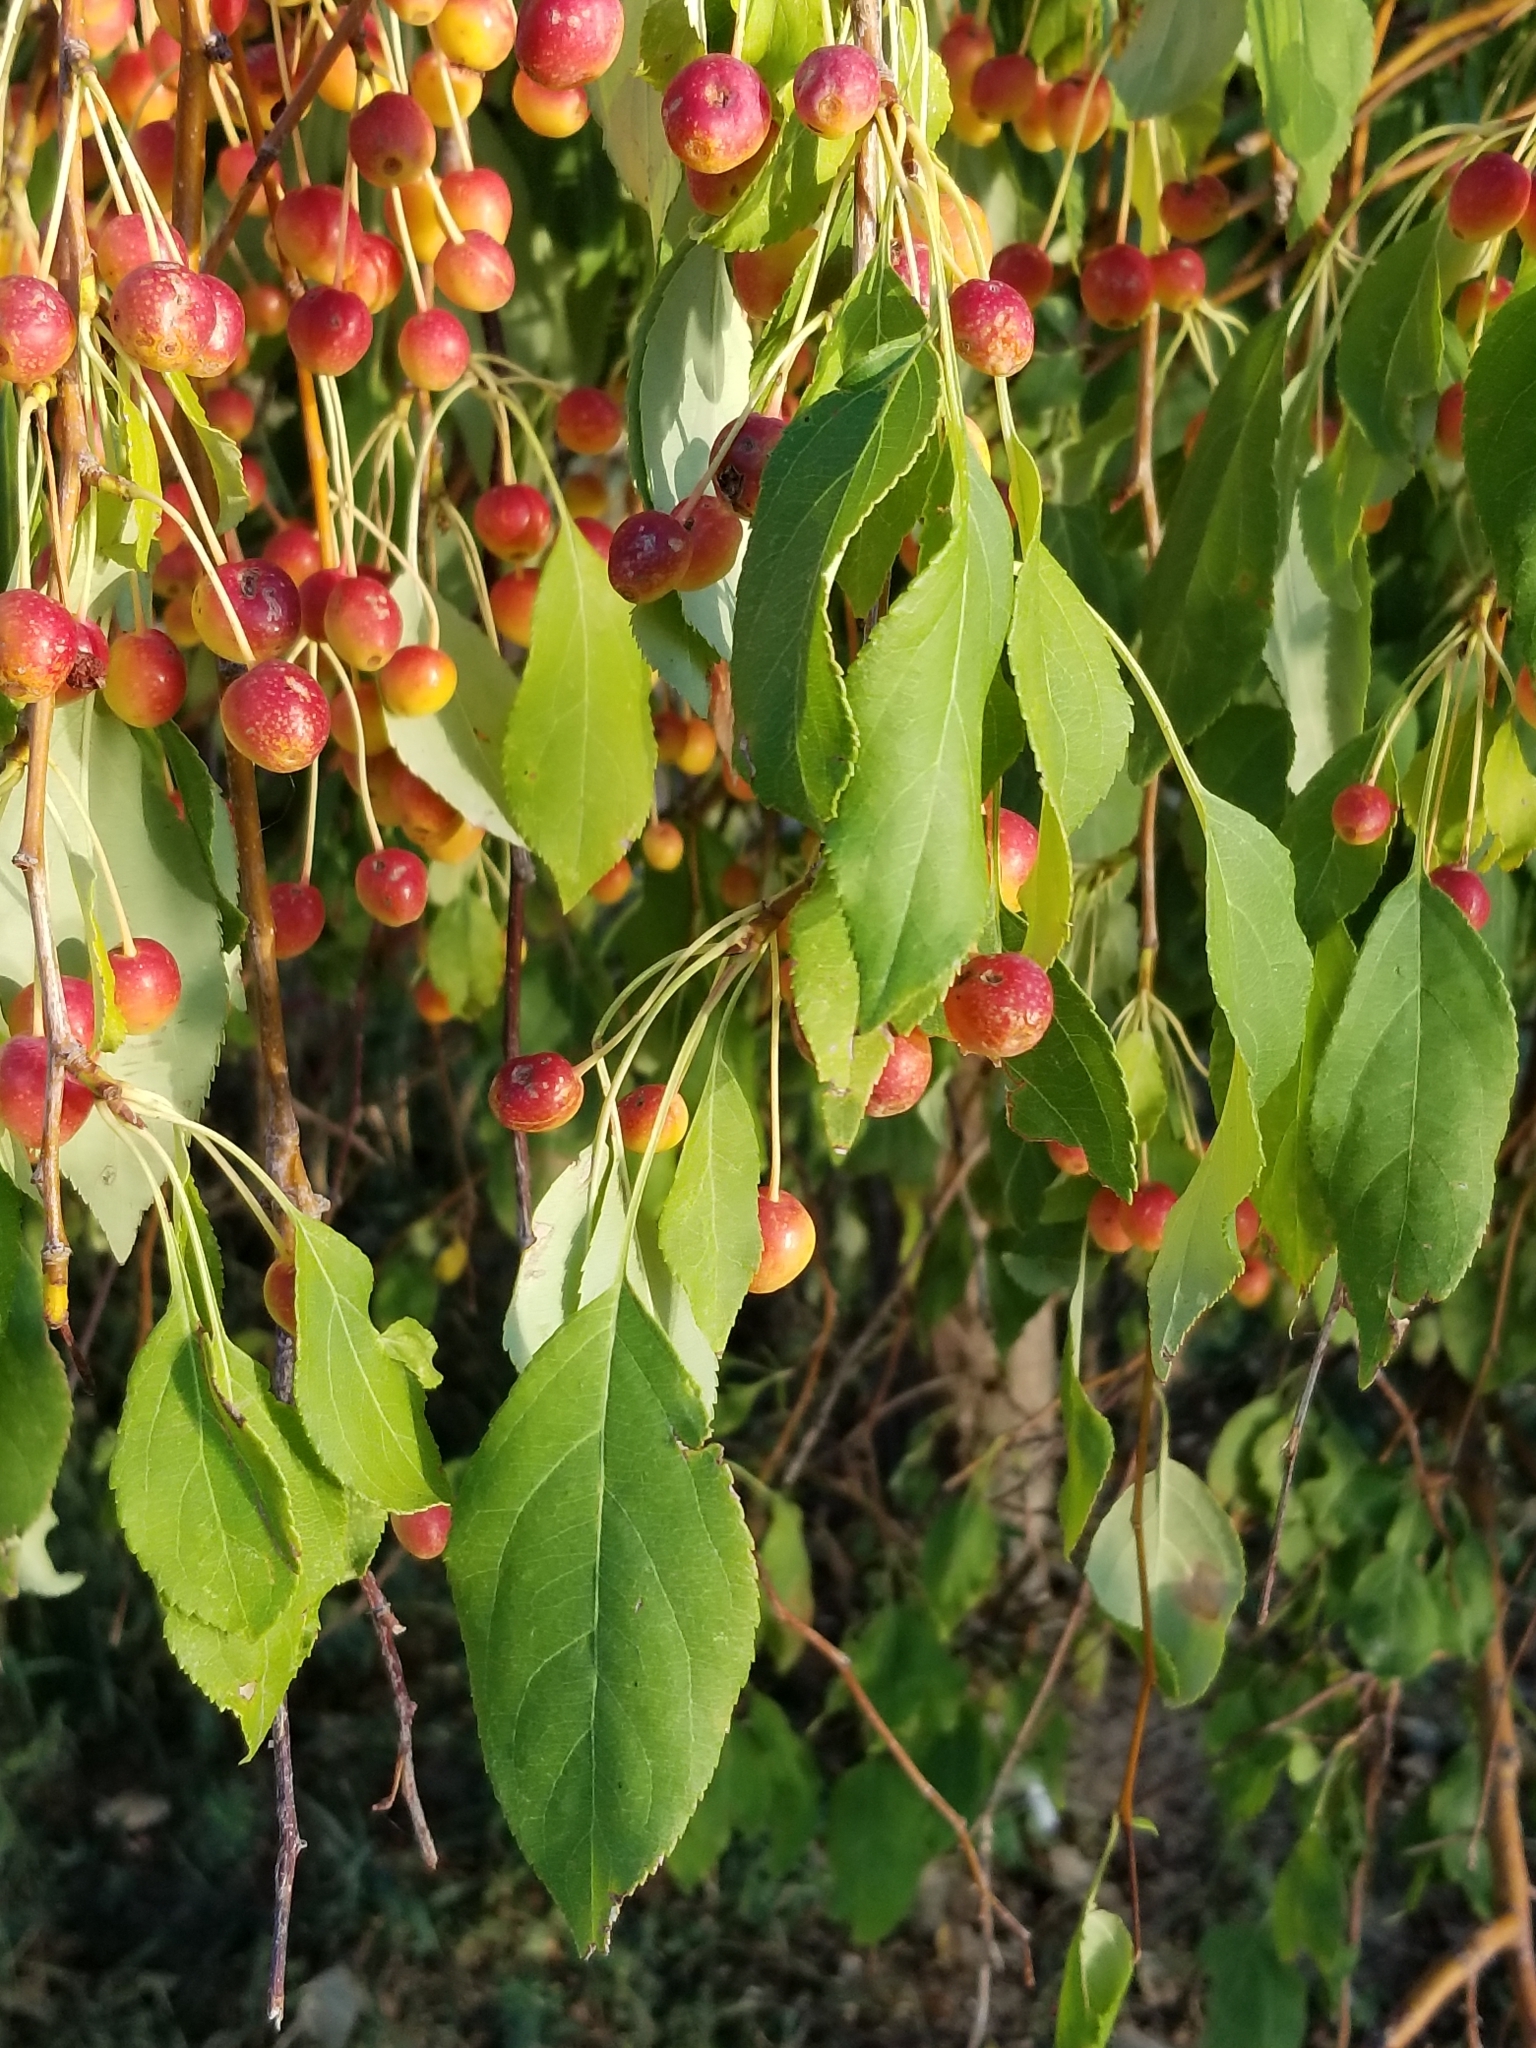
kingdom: Plantae
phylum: Tracheophyta
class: Magnoliopsida
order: Rosales
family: Rosaceae
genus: Prunus
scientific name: Prunus avium
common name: Sweet cherry
